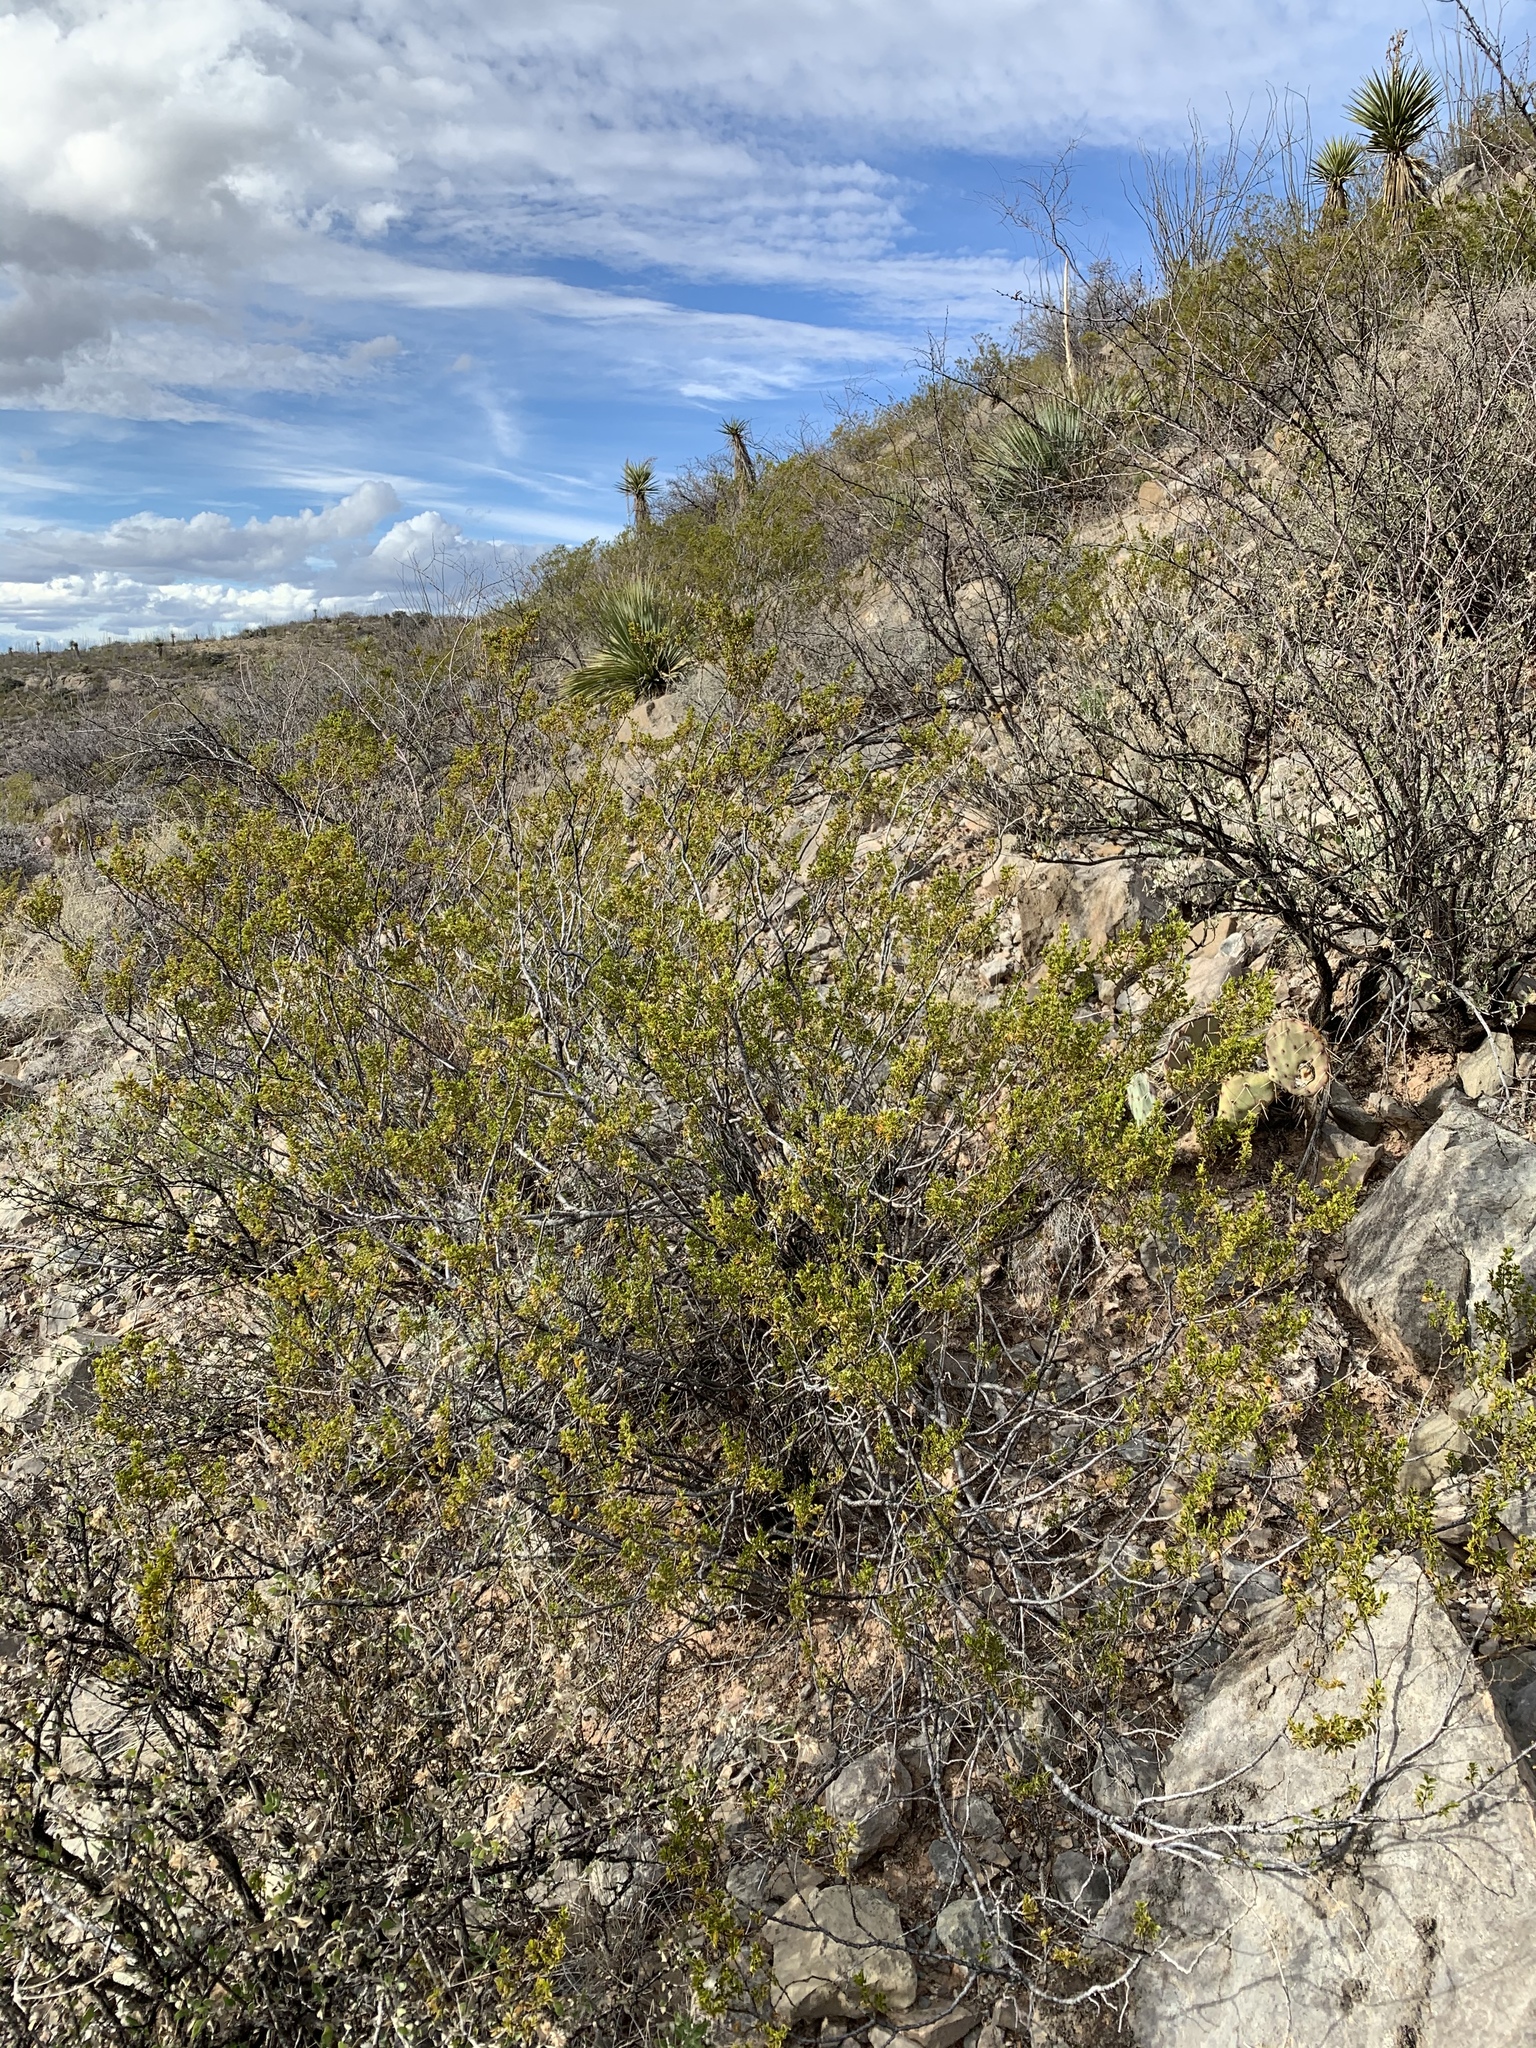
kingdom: Plantae
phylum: Tracheophyta
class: Magnoliopsida
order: Zygophyllales
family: Zygophyllaceae
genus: Larrea
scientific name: Larrea tridentata
